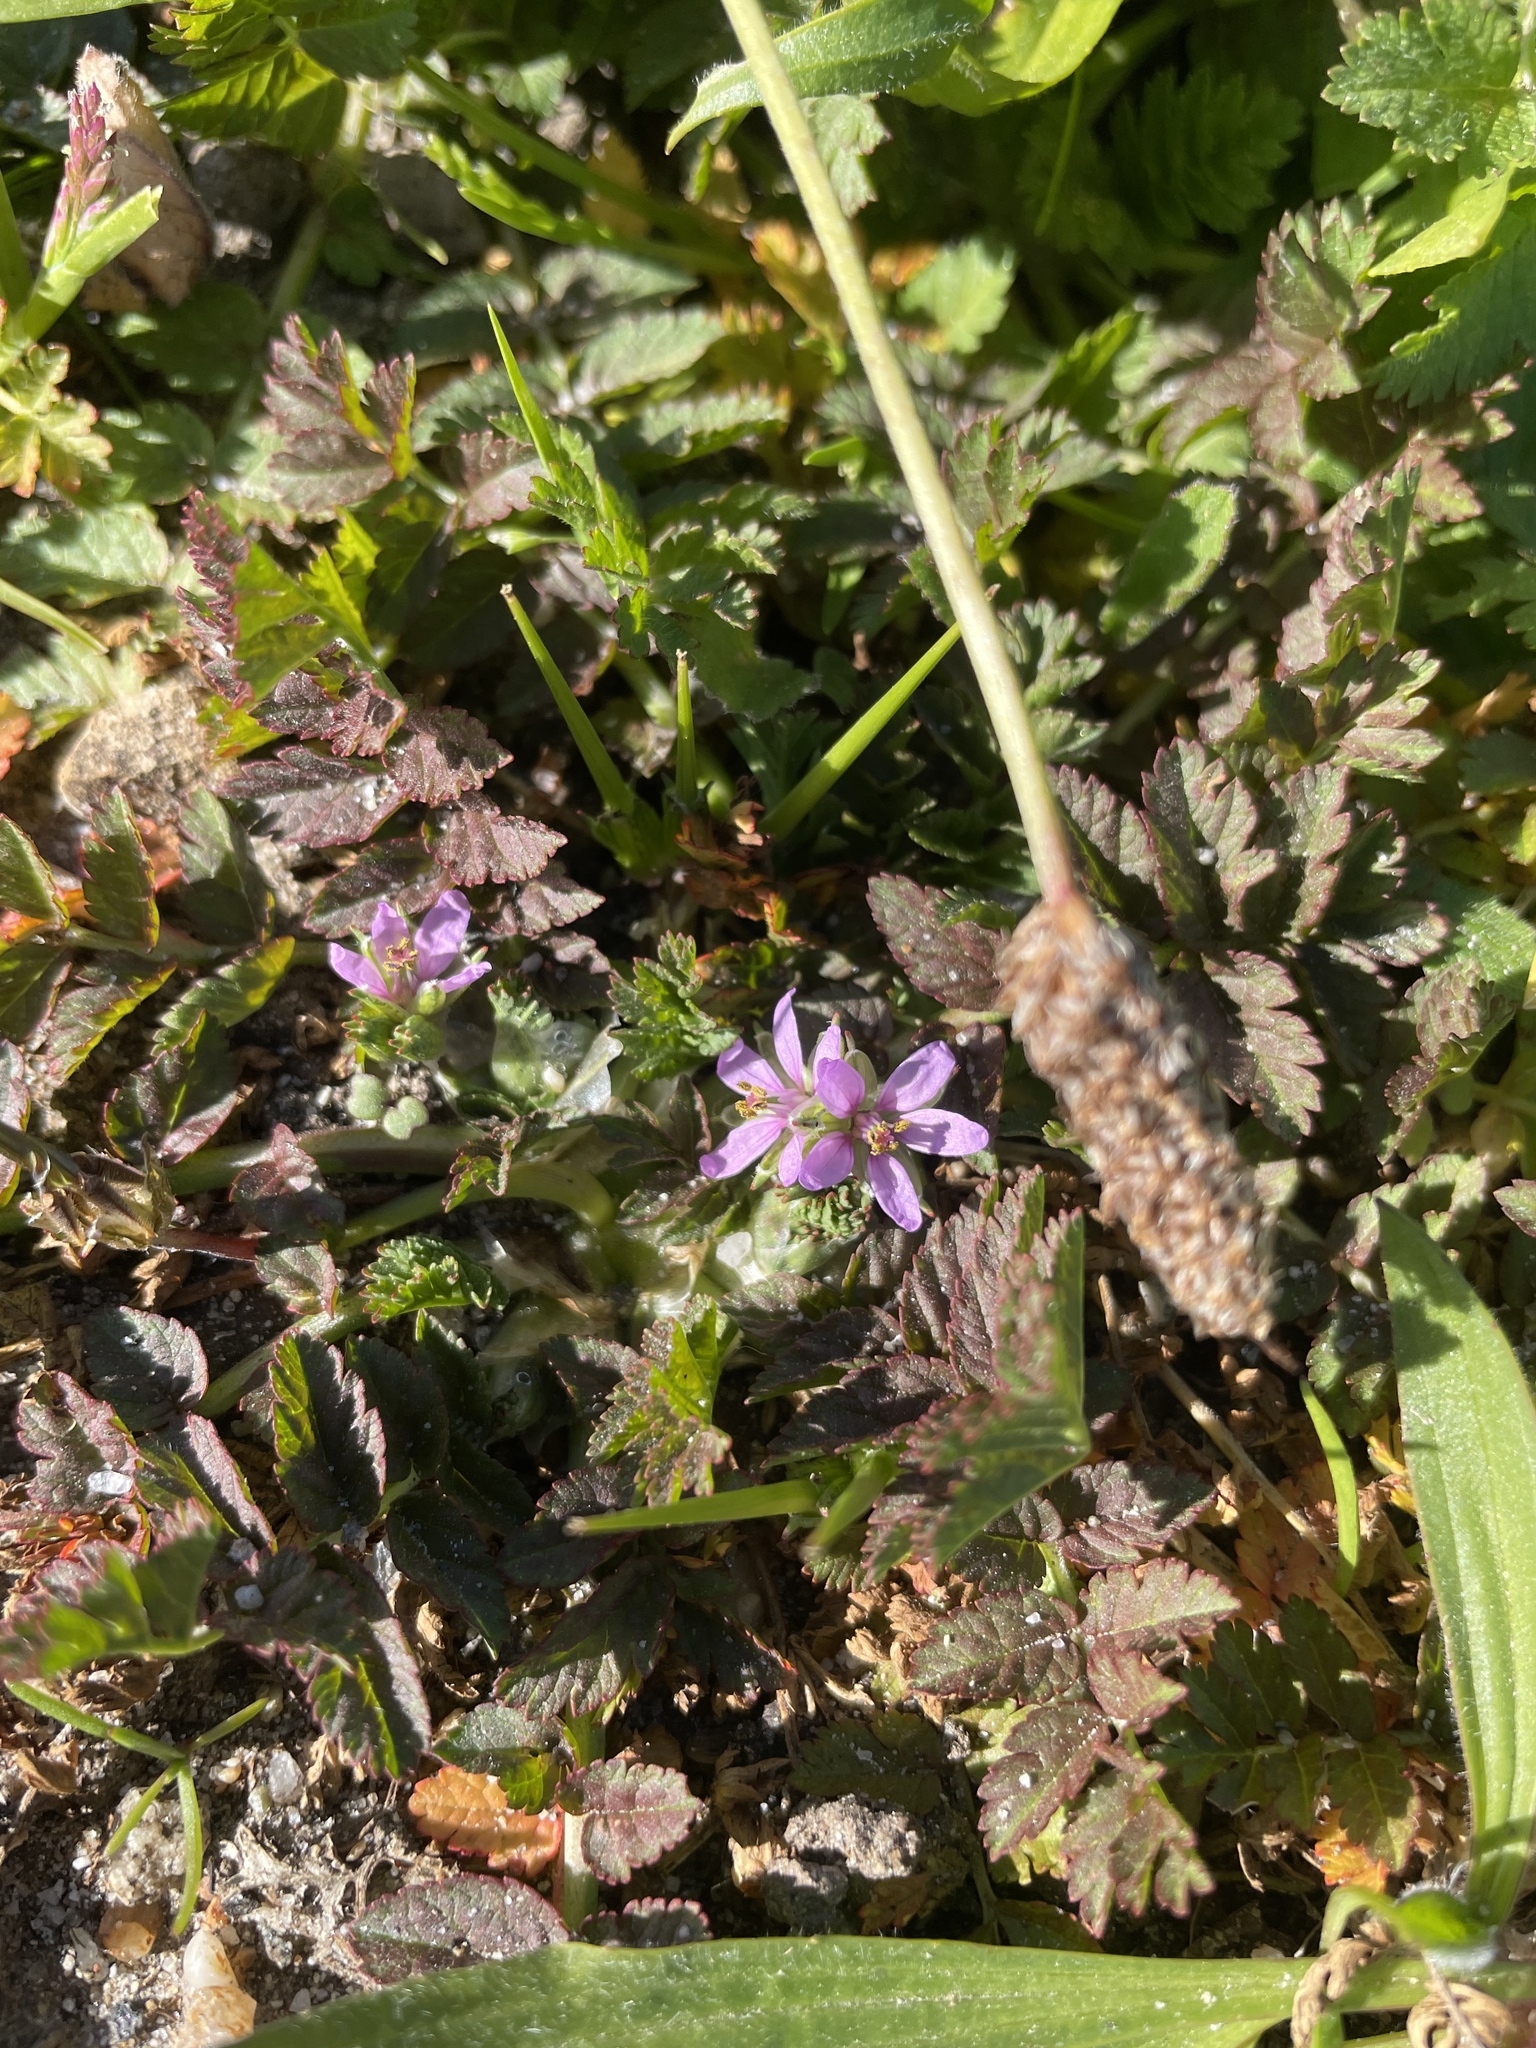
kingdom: Plantae
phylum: Tracheophyta
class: Magnoliopsida
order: Geraniales
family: Geraniaceae
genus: Erodium
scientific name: Erodium moschatum
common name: Musk stork's-bill
